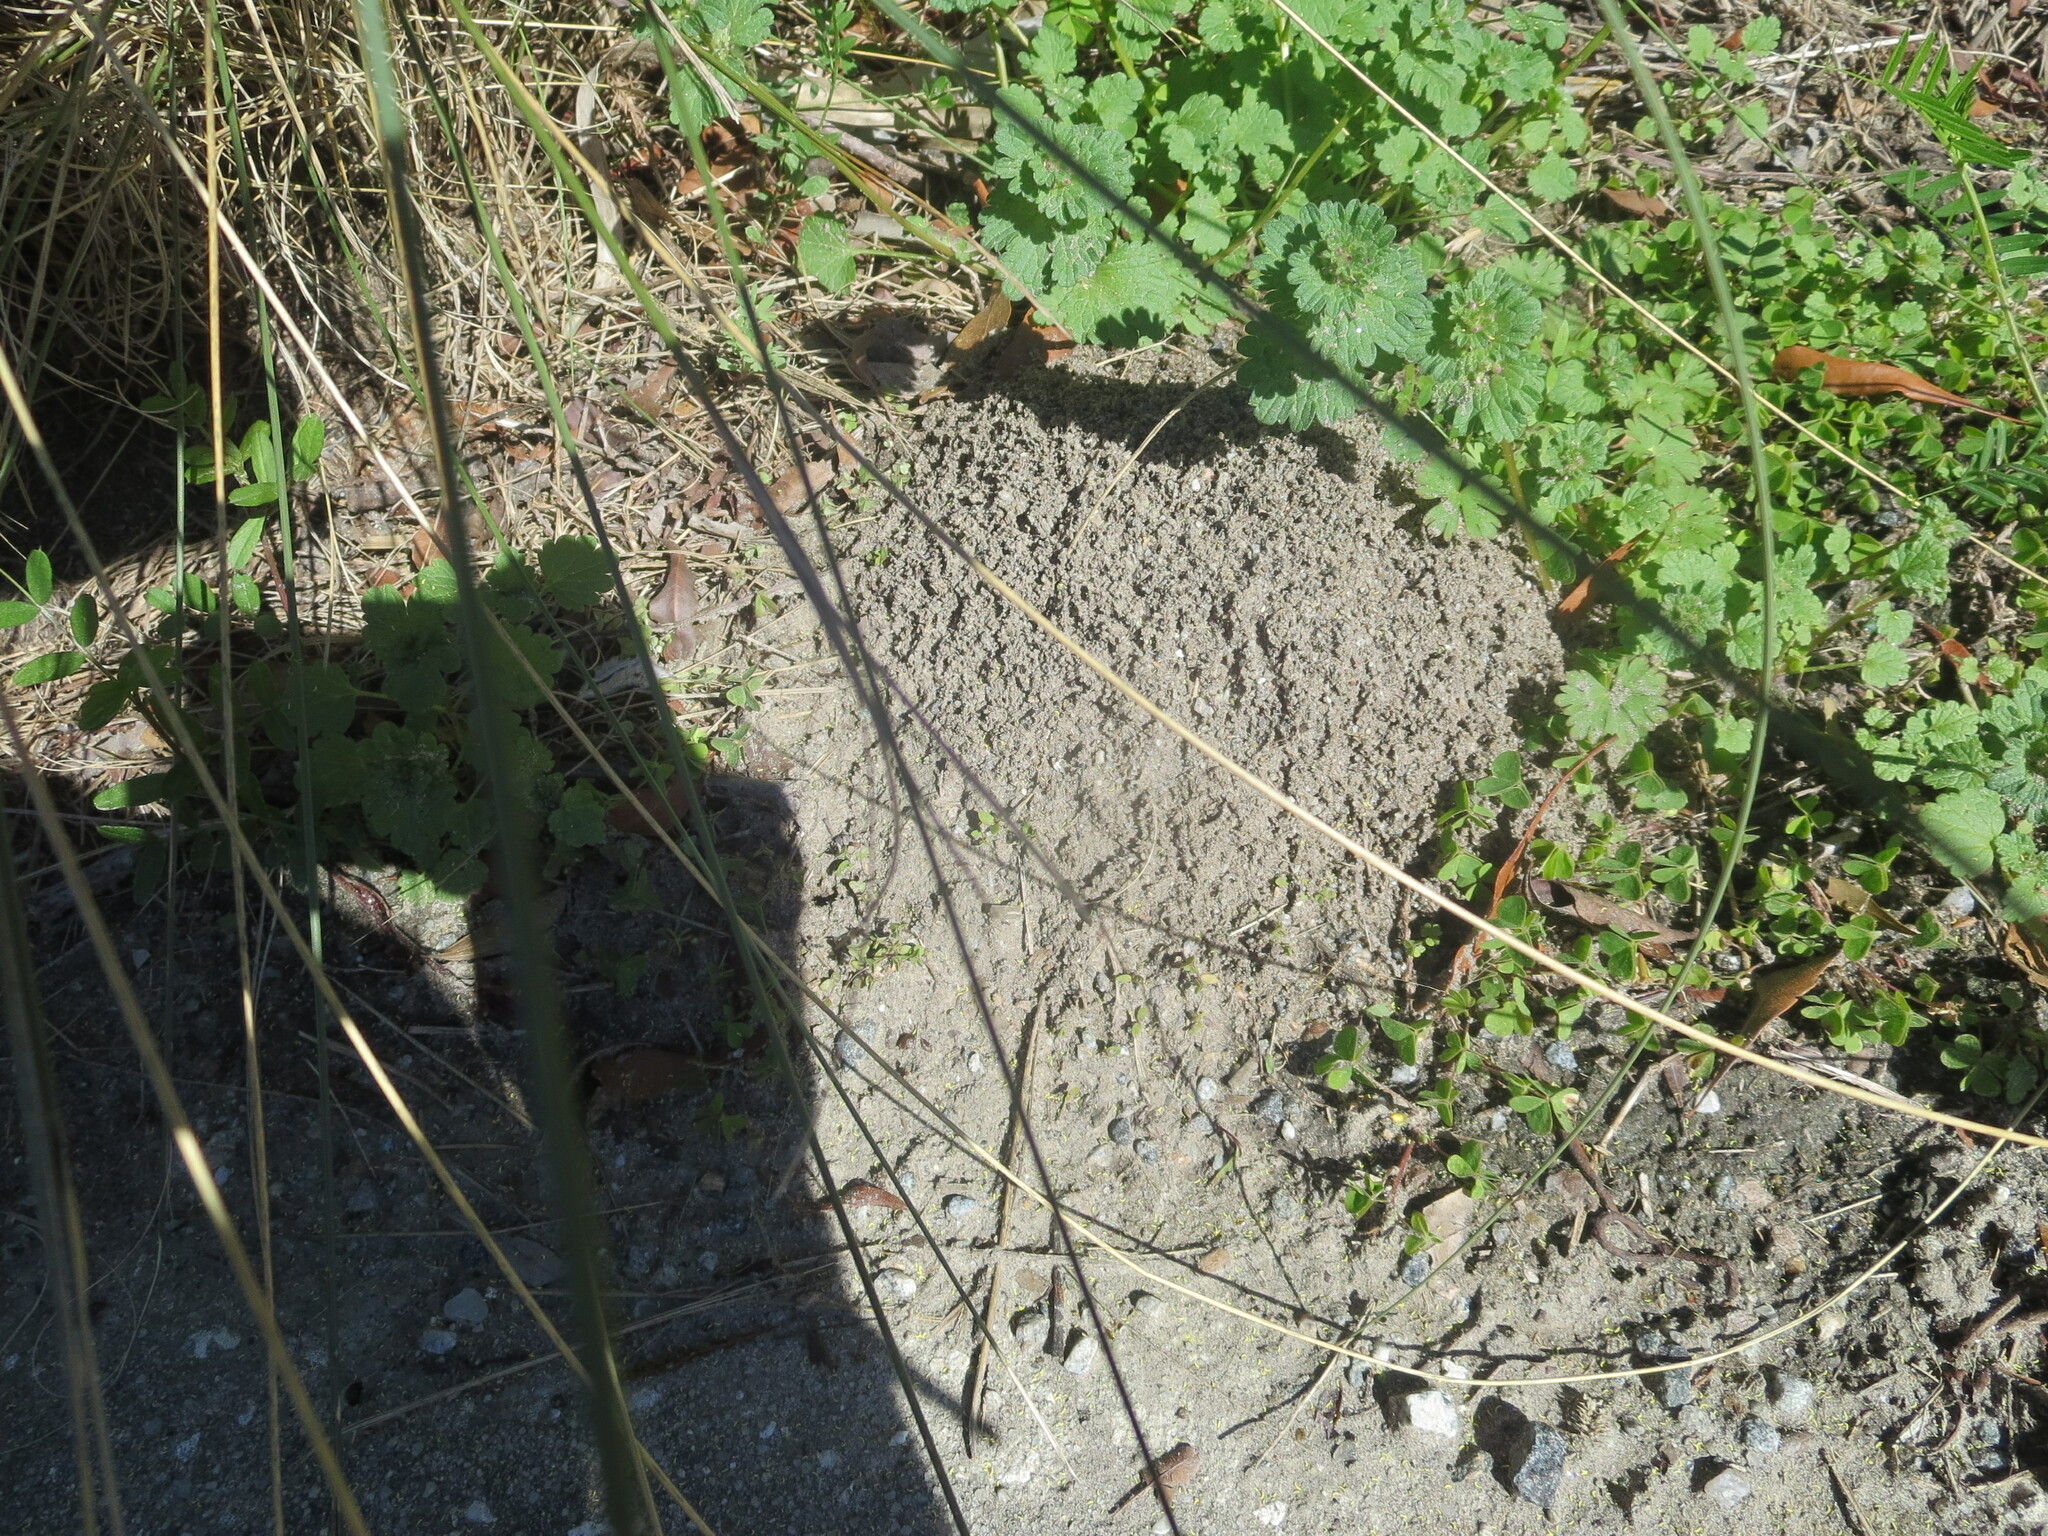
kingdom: Animalia
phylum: Arthropoda
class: Insecta
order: Hymenoptera
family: Formicidae
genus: Solenopsis
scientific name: Solenopsis invicta
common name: Red imported fire ant
